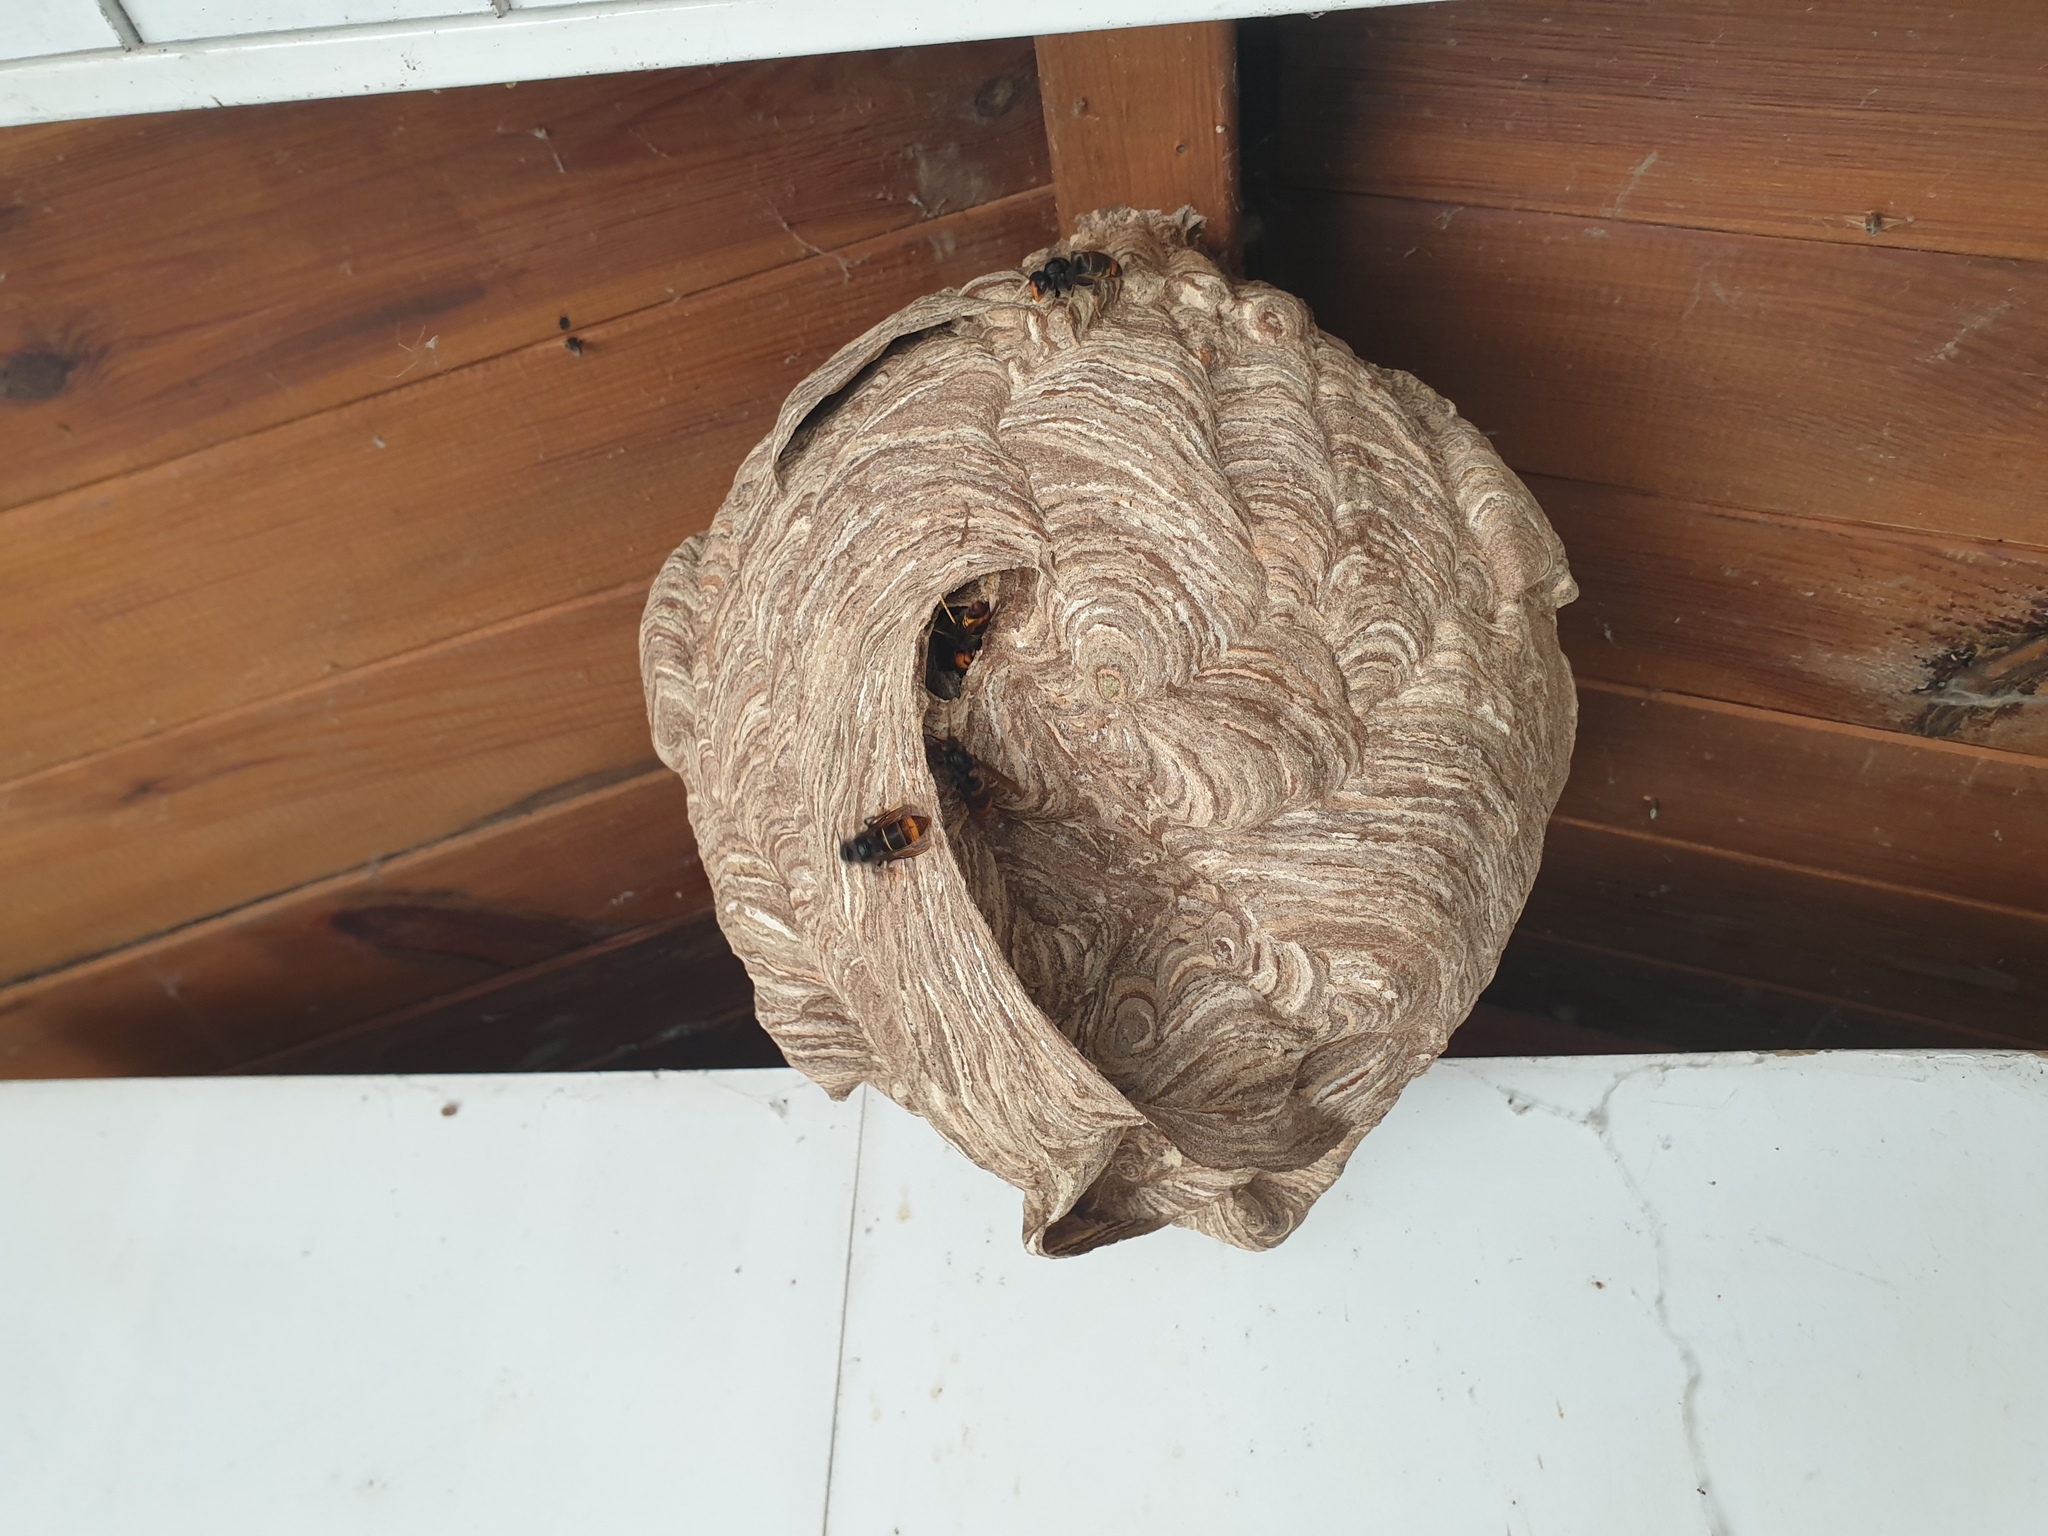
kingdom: Animalia
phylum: Arthropoda
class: Insecta
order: Hymenoptera
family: Vespidae
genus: Vespa
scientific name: Vespa velutina
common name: Asian hornet
